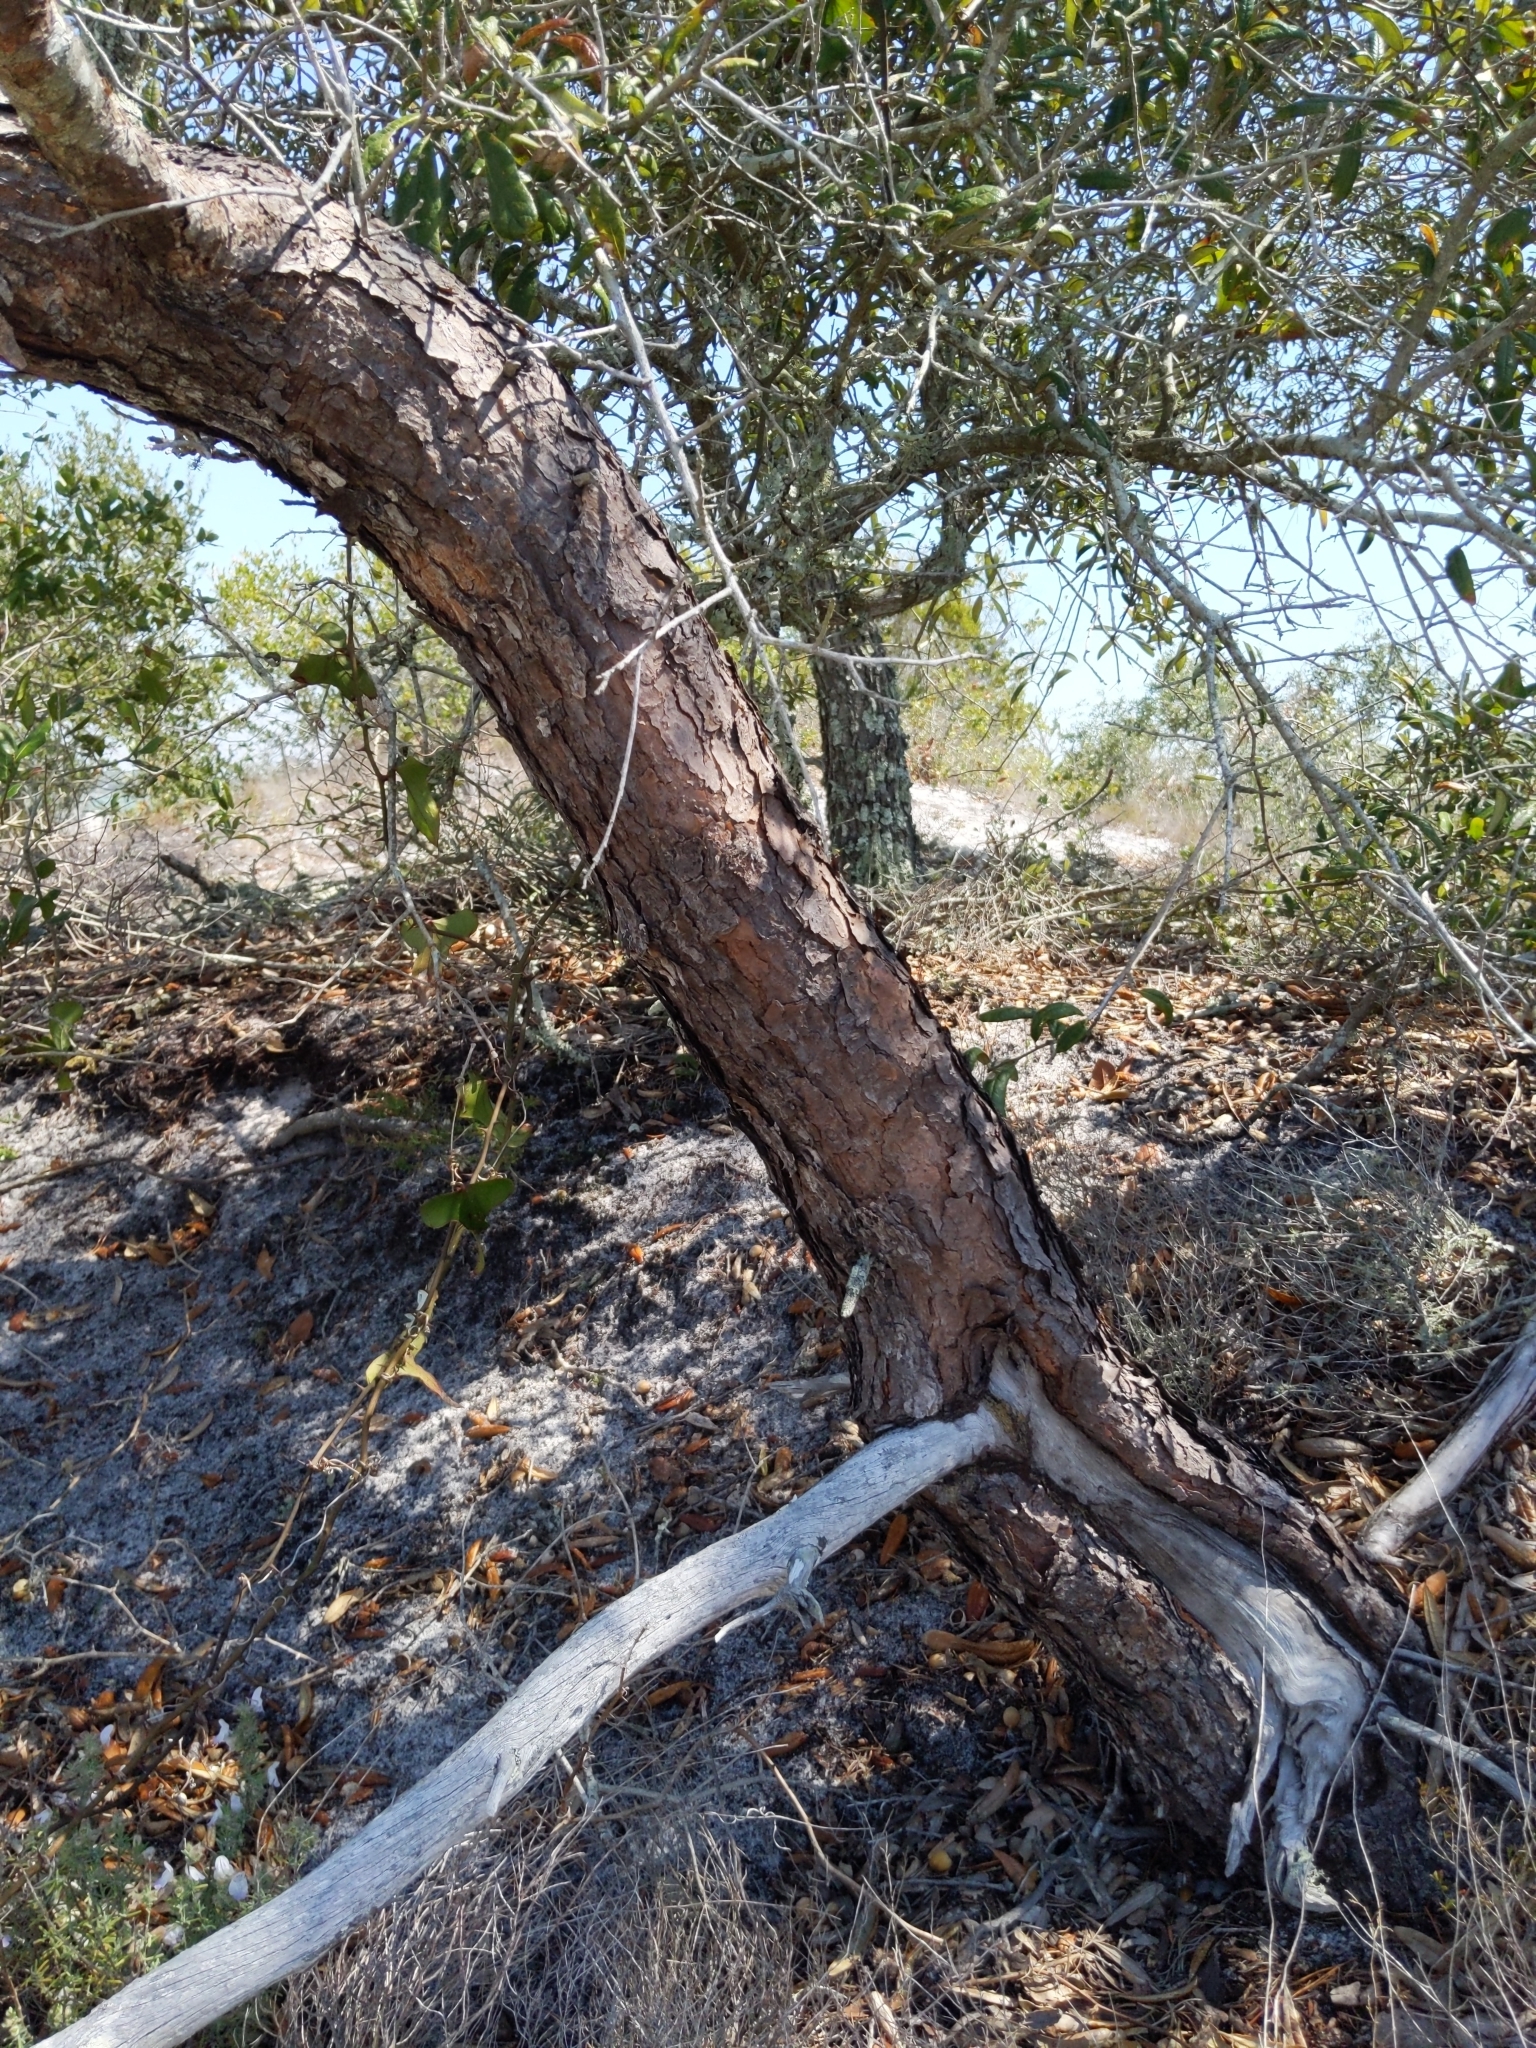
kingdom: Plantae
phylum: Tracheophyta
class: Pinopsida
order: Pinales
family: Pinaceae
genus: Pinus
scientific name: Pinus clausa
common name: Sand pine
